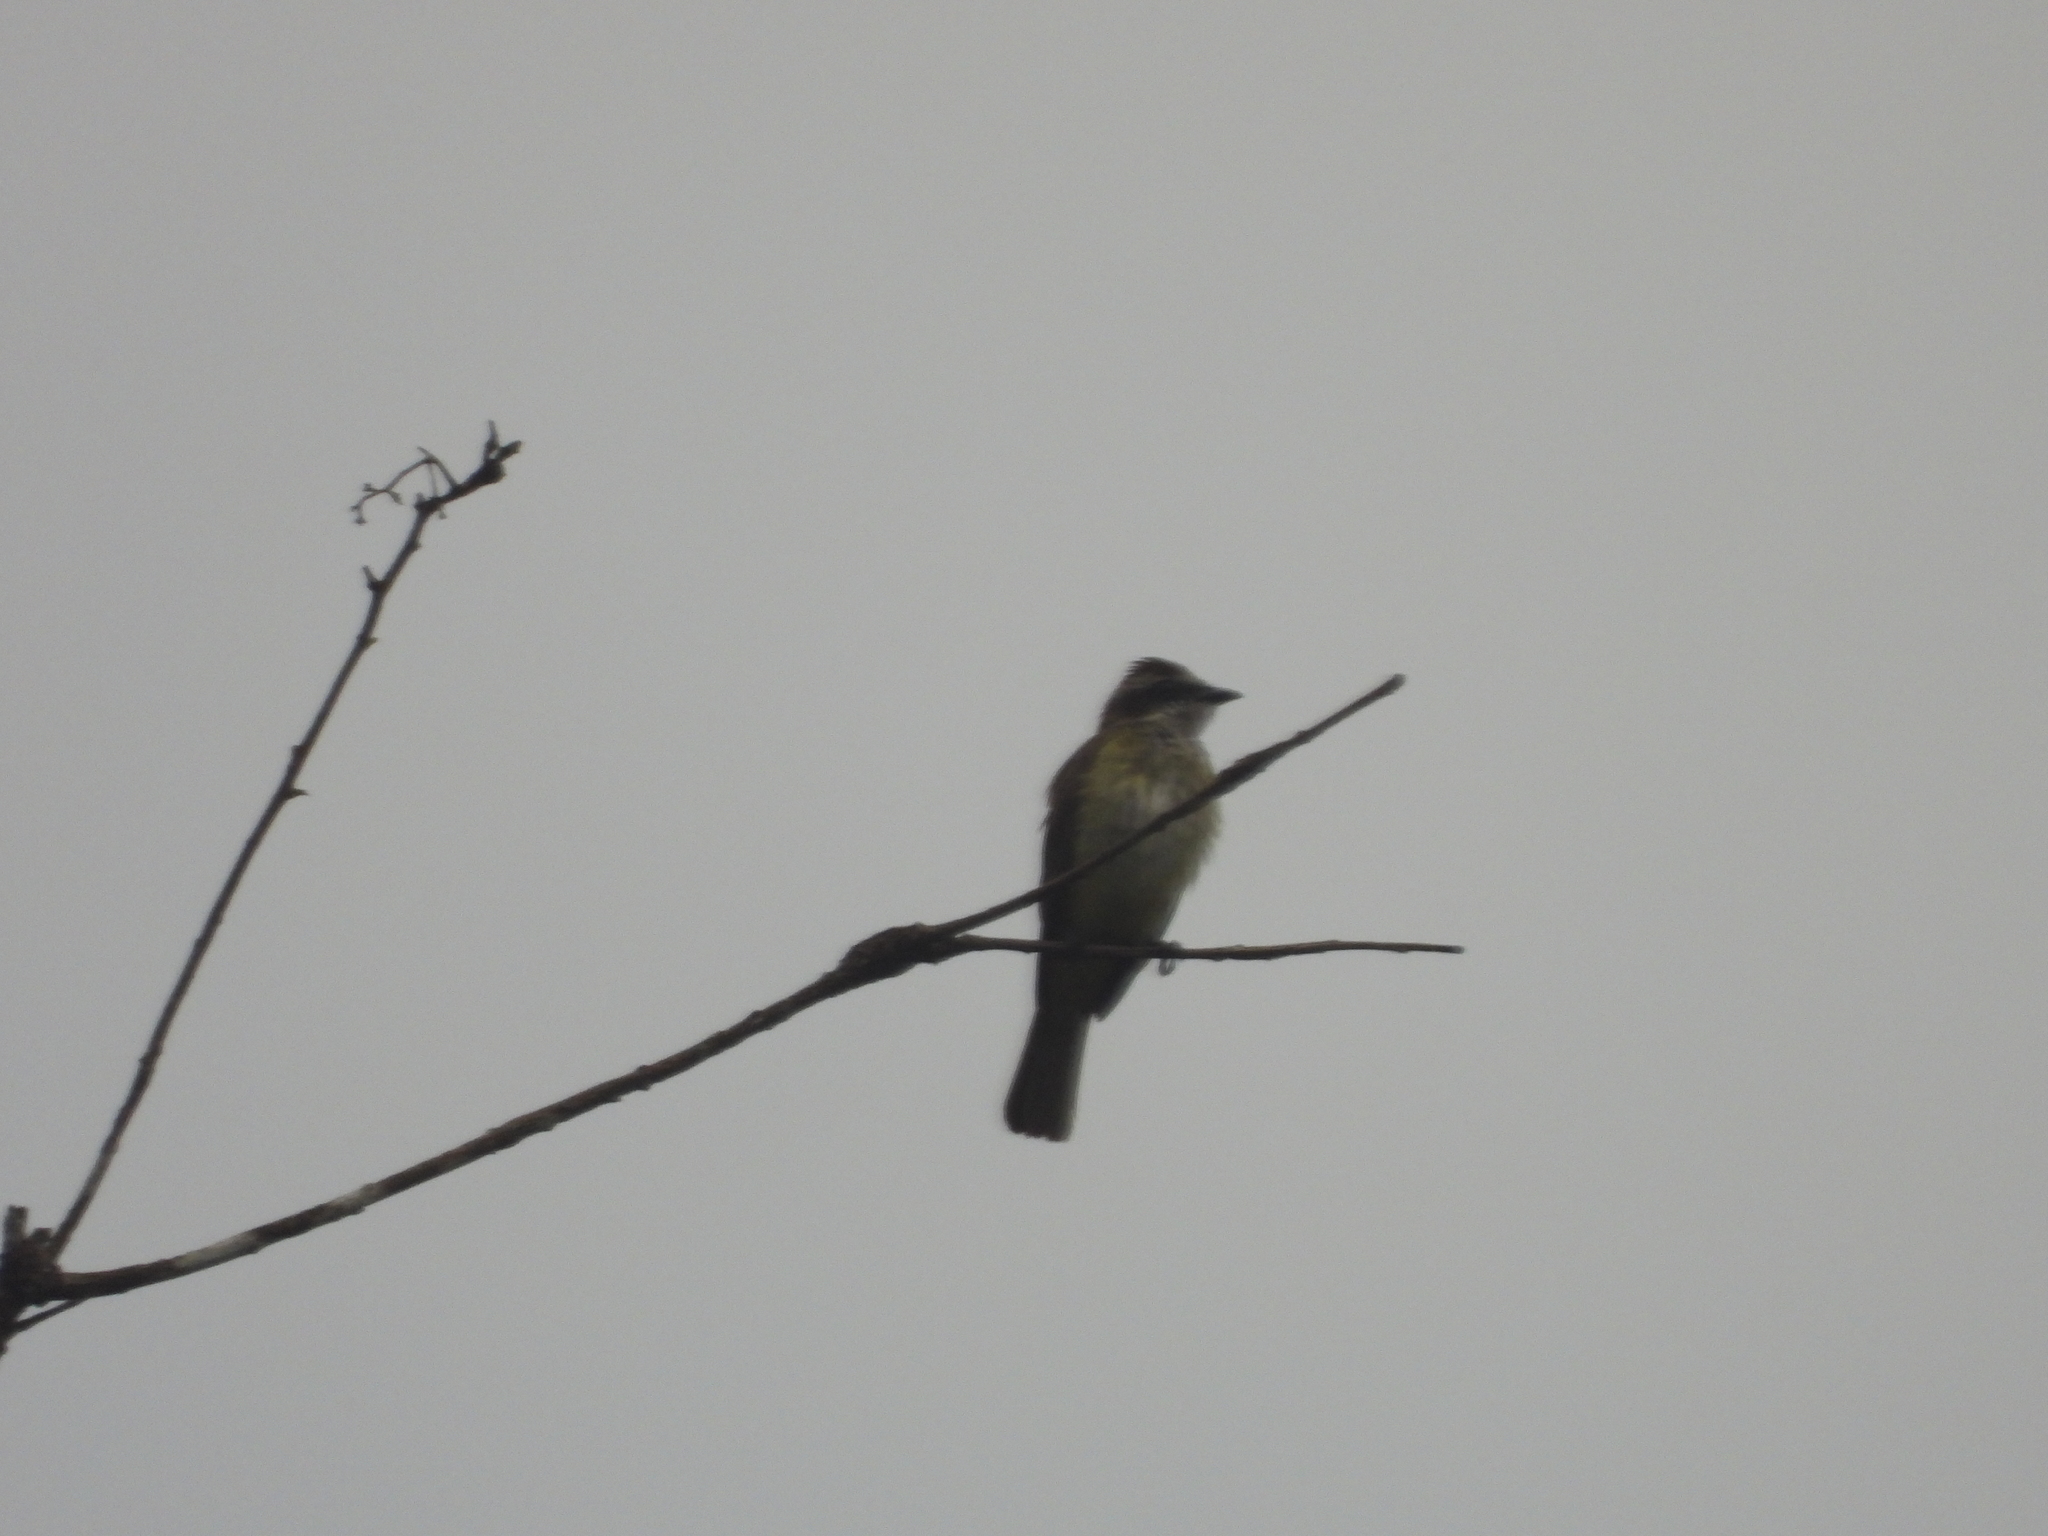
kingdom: Animalia
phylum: Chordata
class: Aves
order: Passeriformes
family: Tyrannidae
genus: Legatus
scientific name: Legatus leucophaius
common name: Piratic flycatcher
